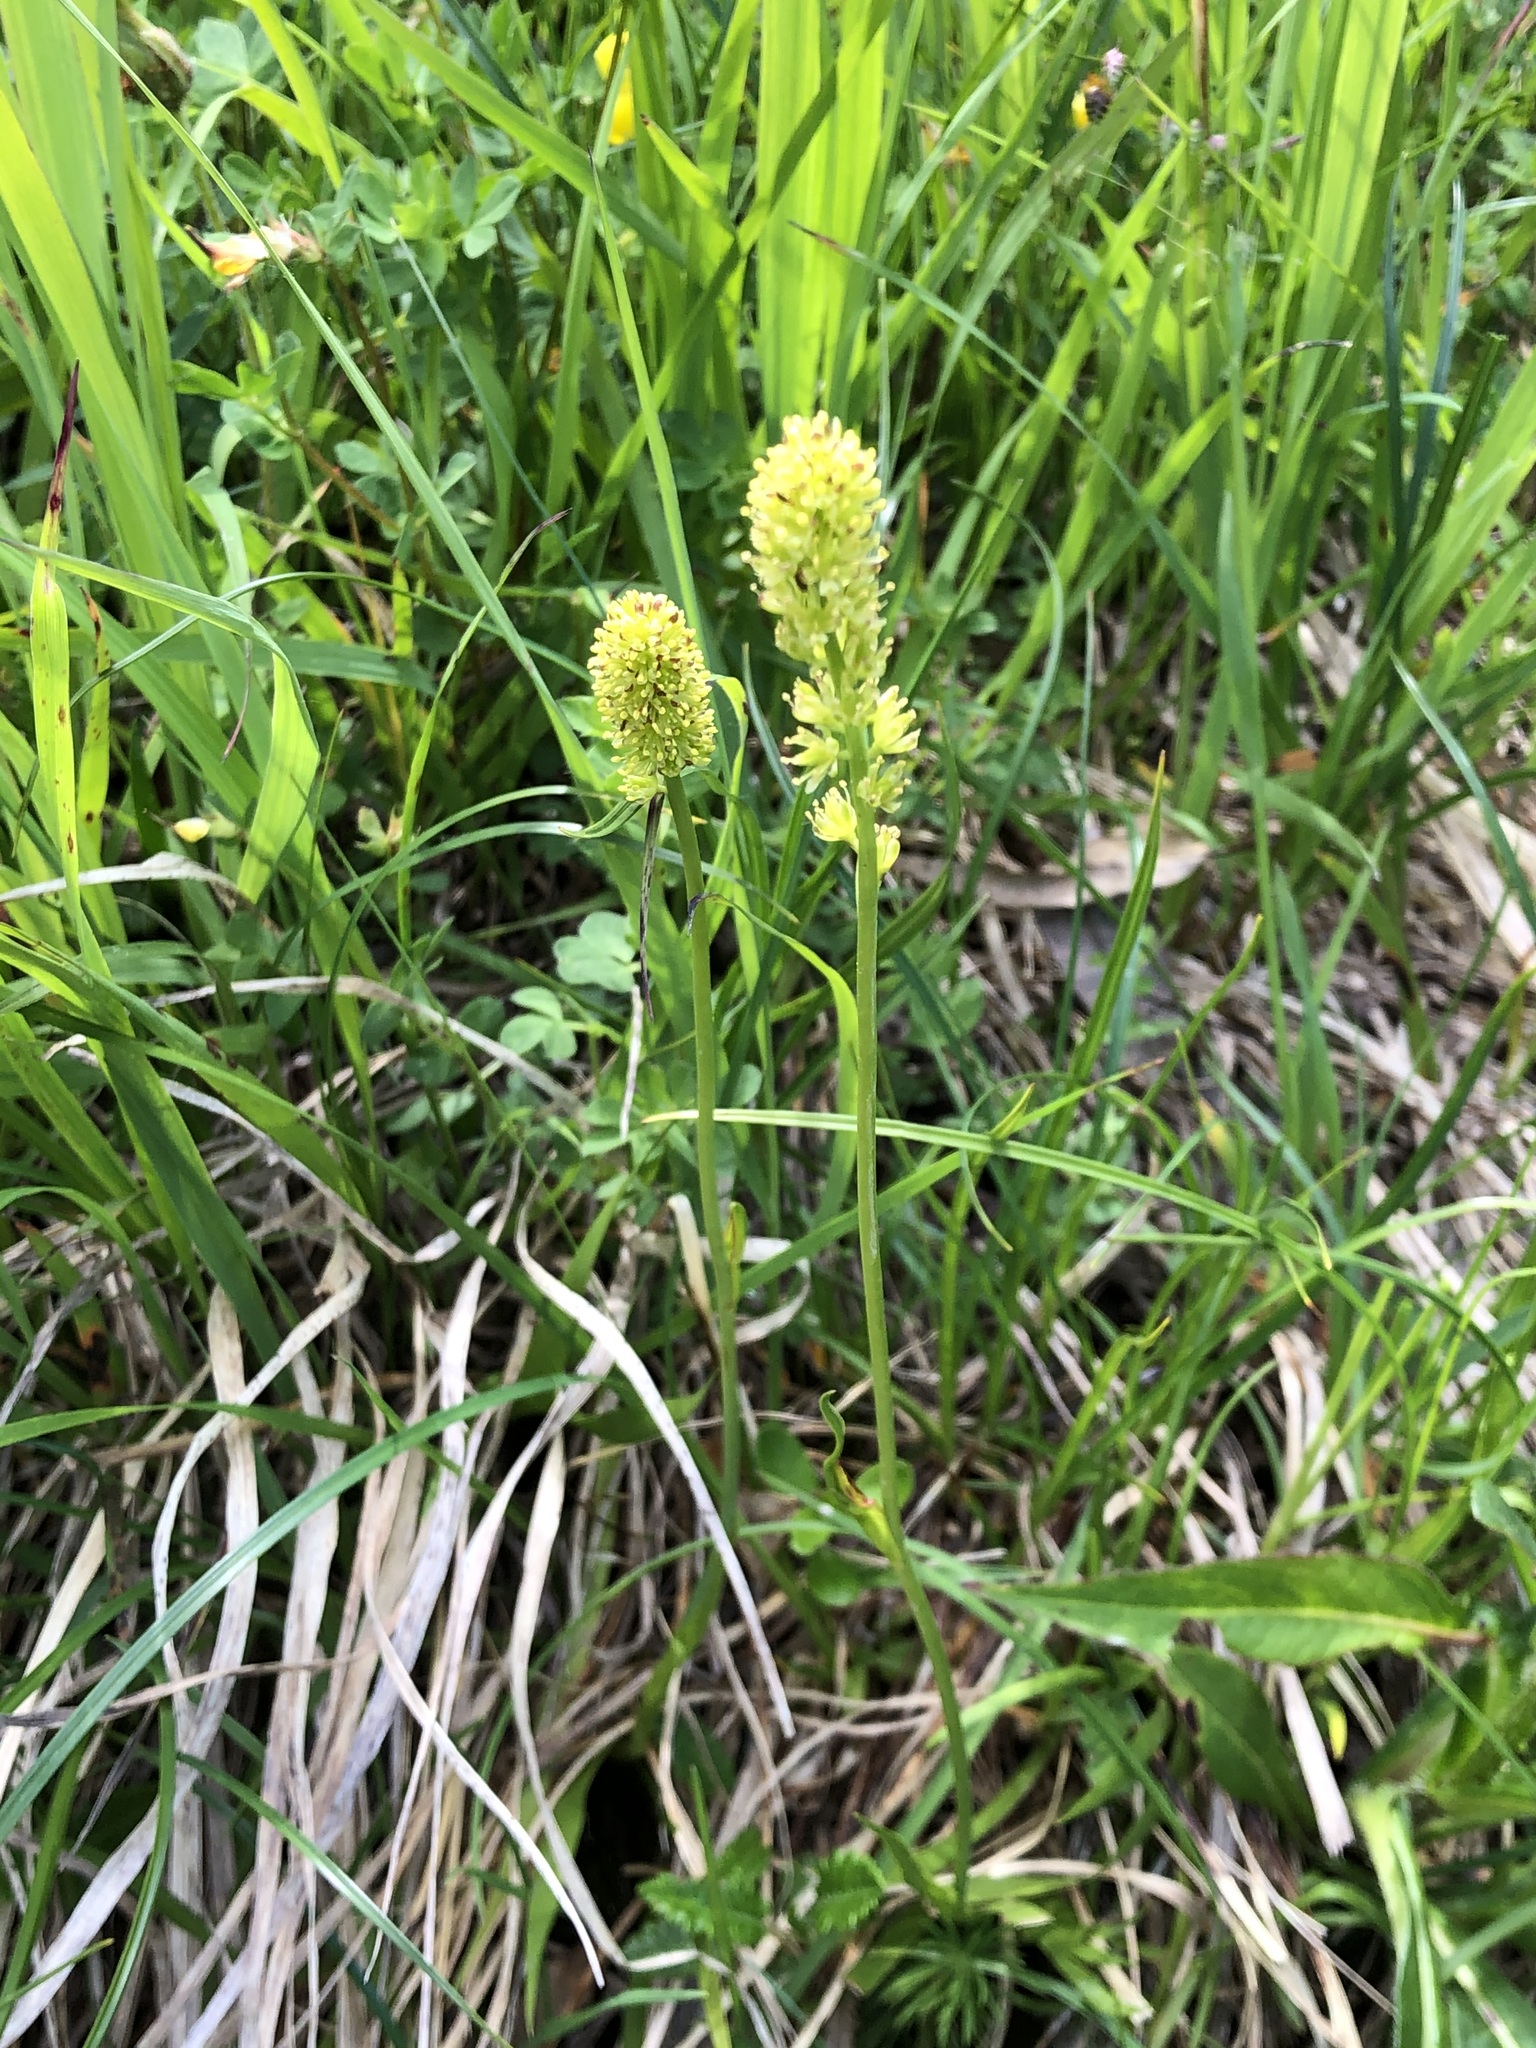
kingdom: Plantae
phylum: Tracheophyta
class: Liliopsida
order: Alismatales
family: Tofieldiaceae
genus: Tofieldia
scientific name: Tofieldia calyculata
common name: German-asphodel
